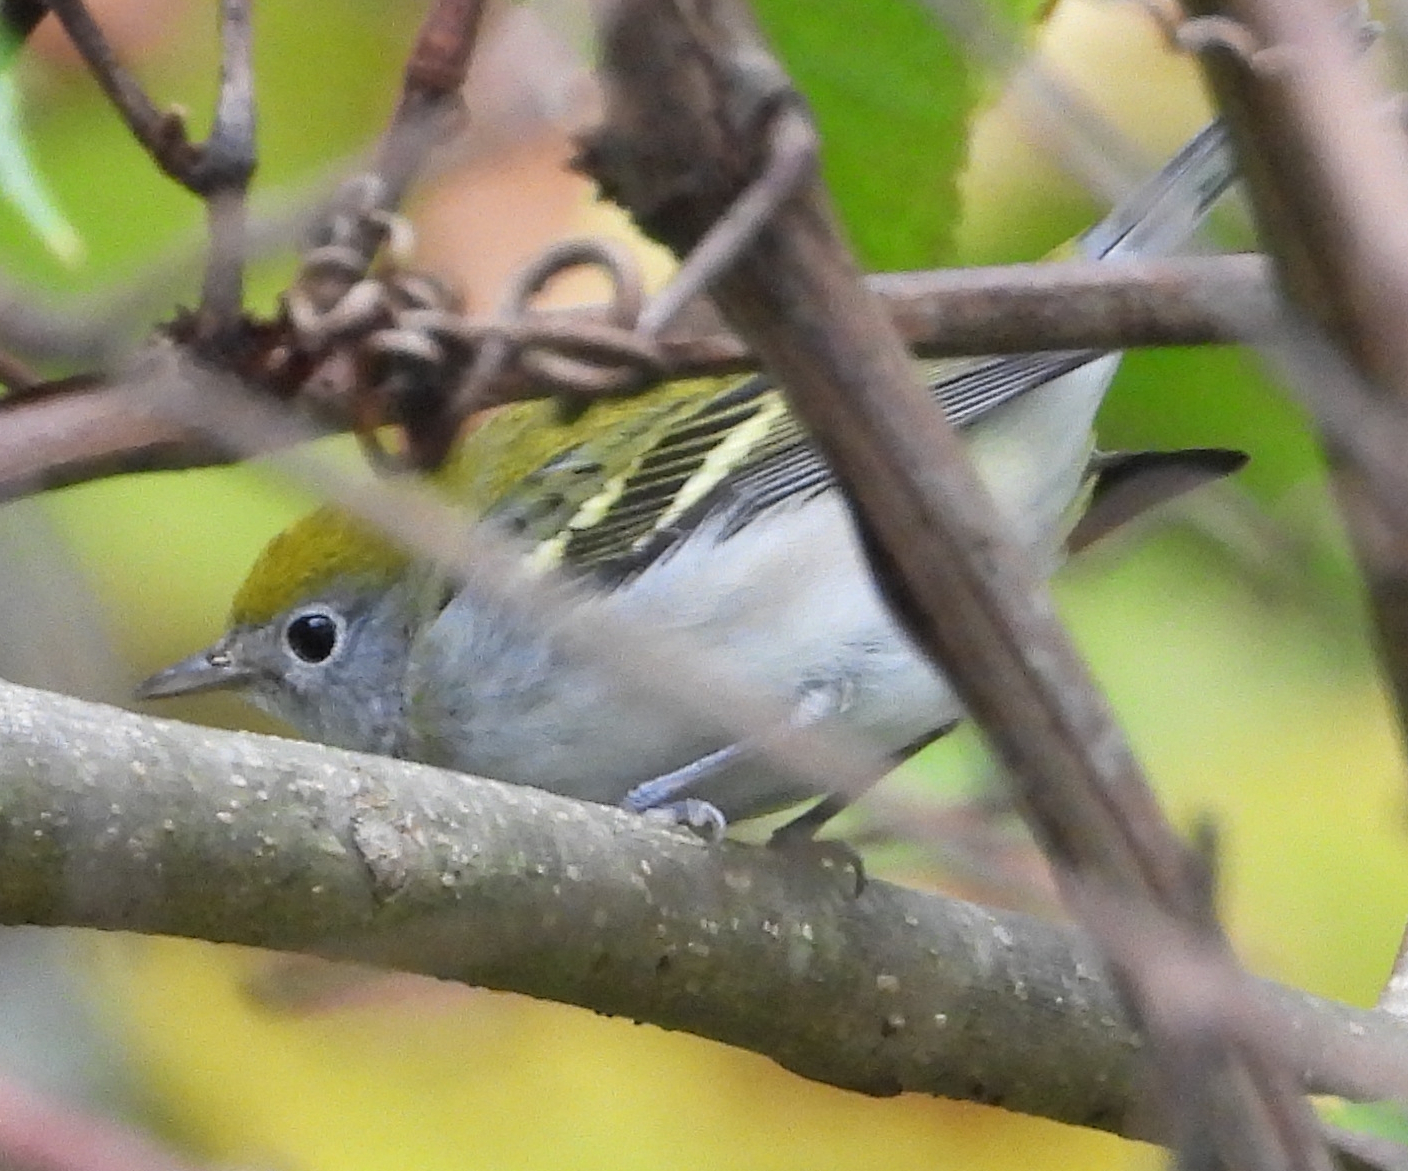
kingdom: Animalia
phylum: Chordata
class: Aves
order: Passeriformes
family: Parulidae
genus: Setophaga
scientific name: Setophaga pensylvanica
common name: Chestnut-sided warbler
